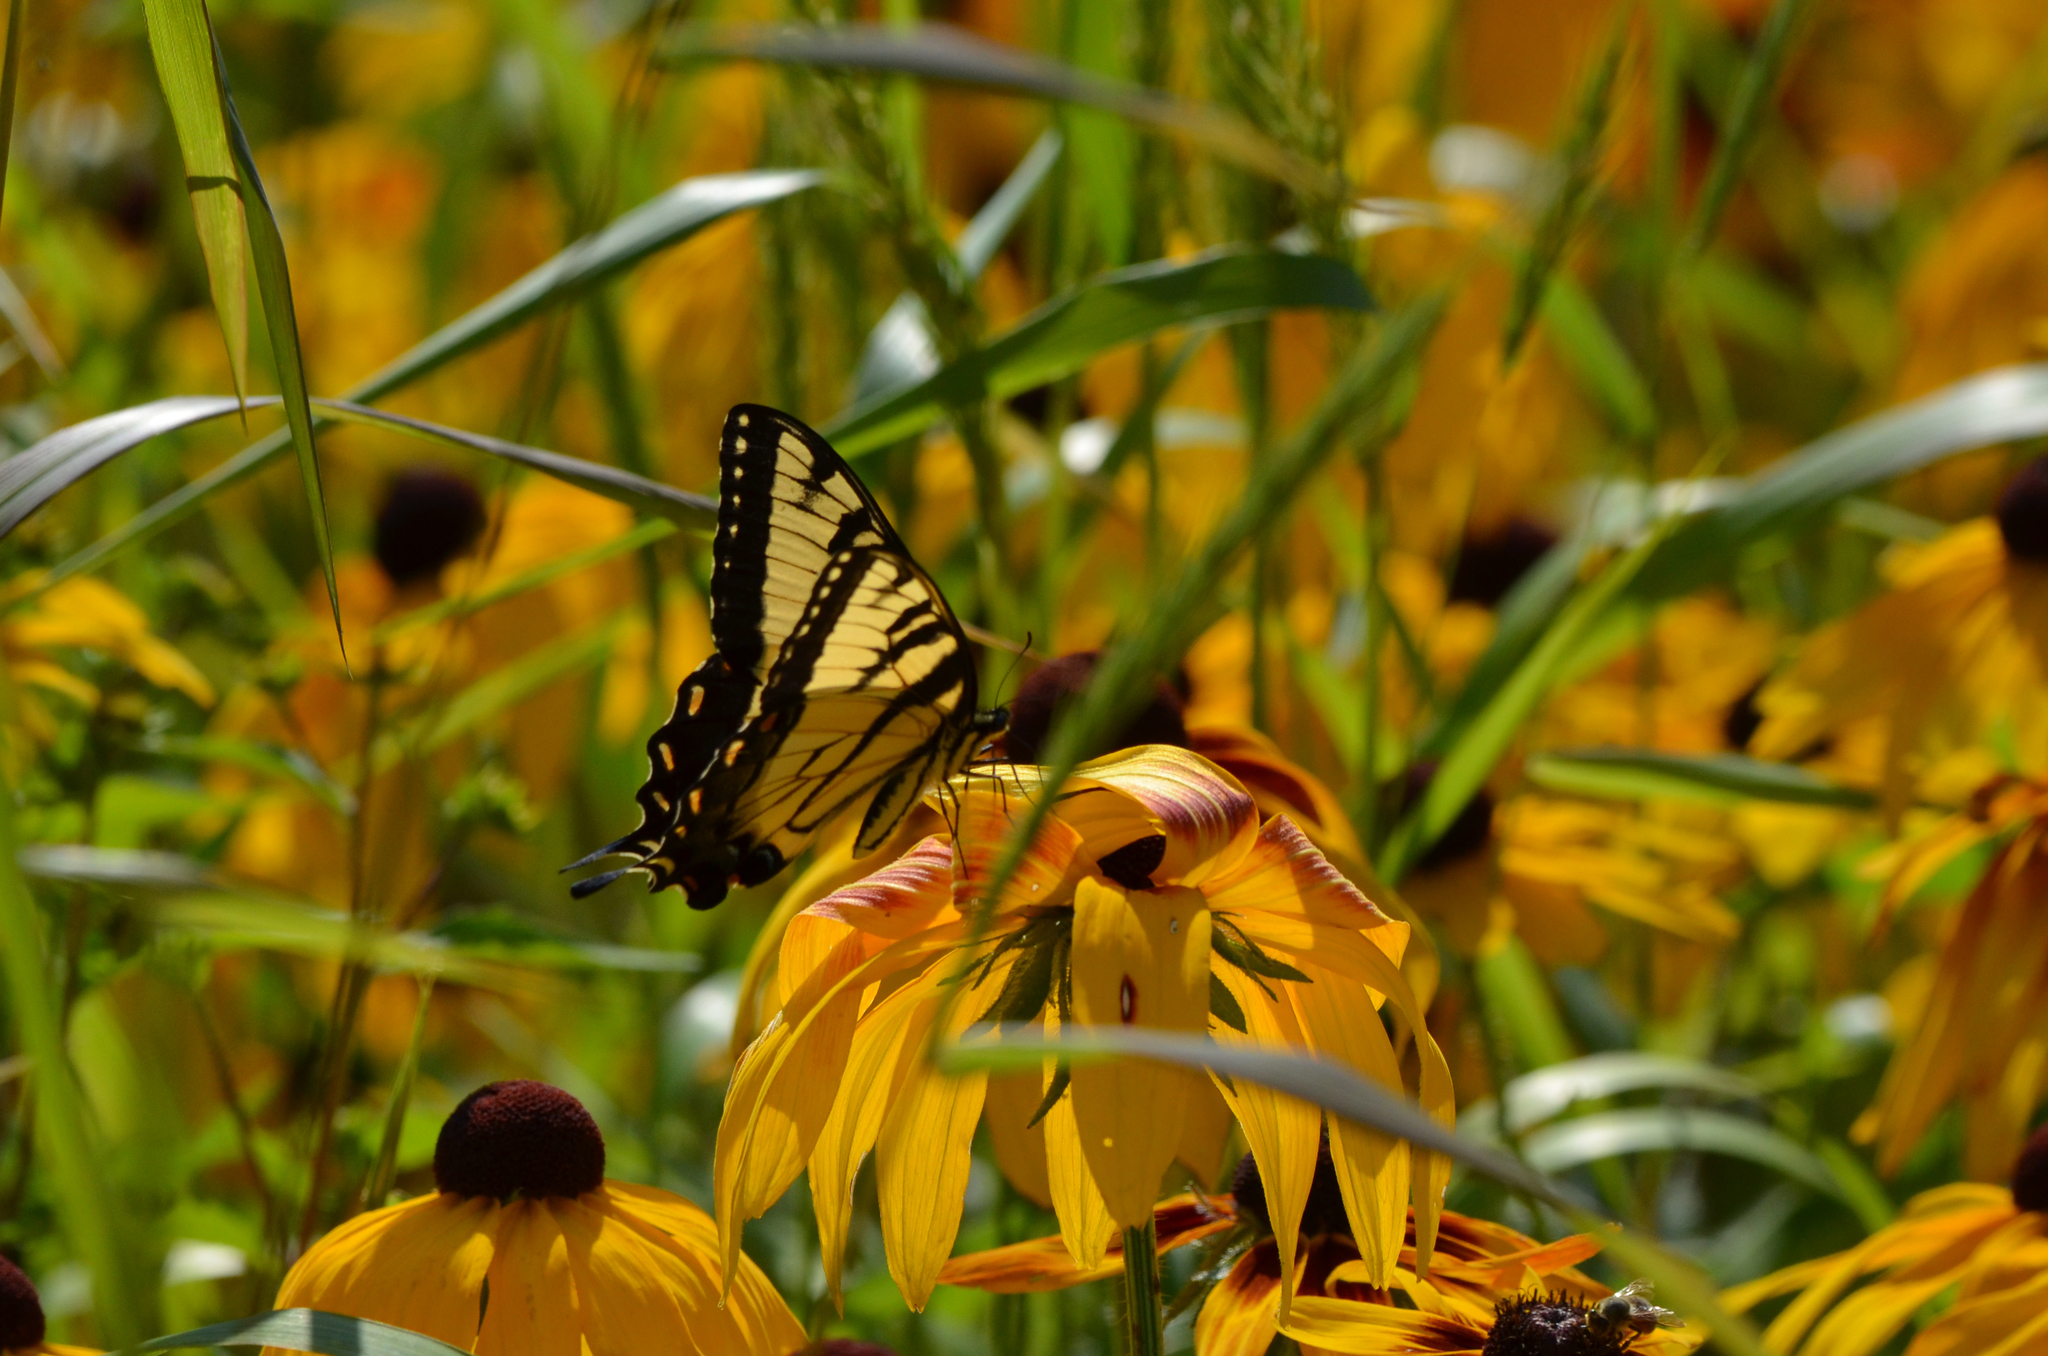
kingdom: Animalia
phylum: Arthropoda
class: Insecta
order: Lepidoptera
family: Papilionidae
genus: Papilio
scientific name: Papilio glaucus
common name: Tiger swallowtail
